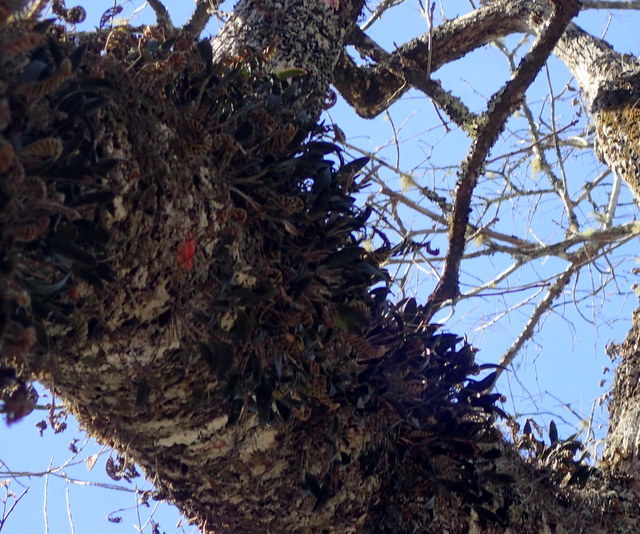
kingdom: Plantae
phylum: Tracheophyta
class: Liliopsida
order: Asparagales
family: Orchidaceae
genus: Epidendrum
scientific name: Epidendrum conopseum
